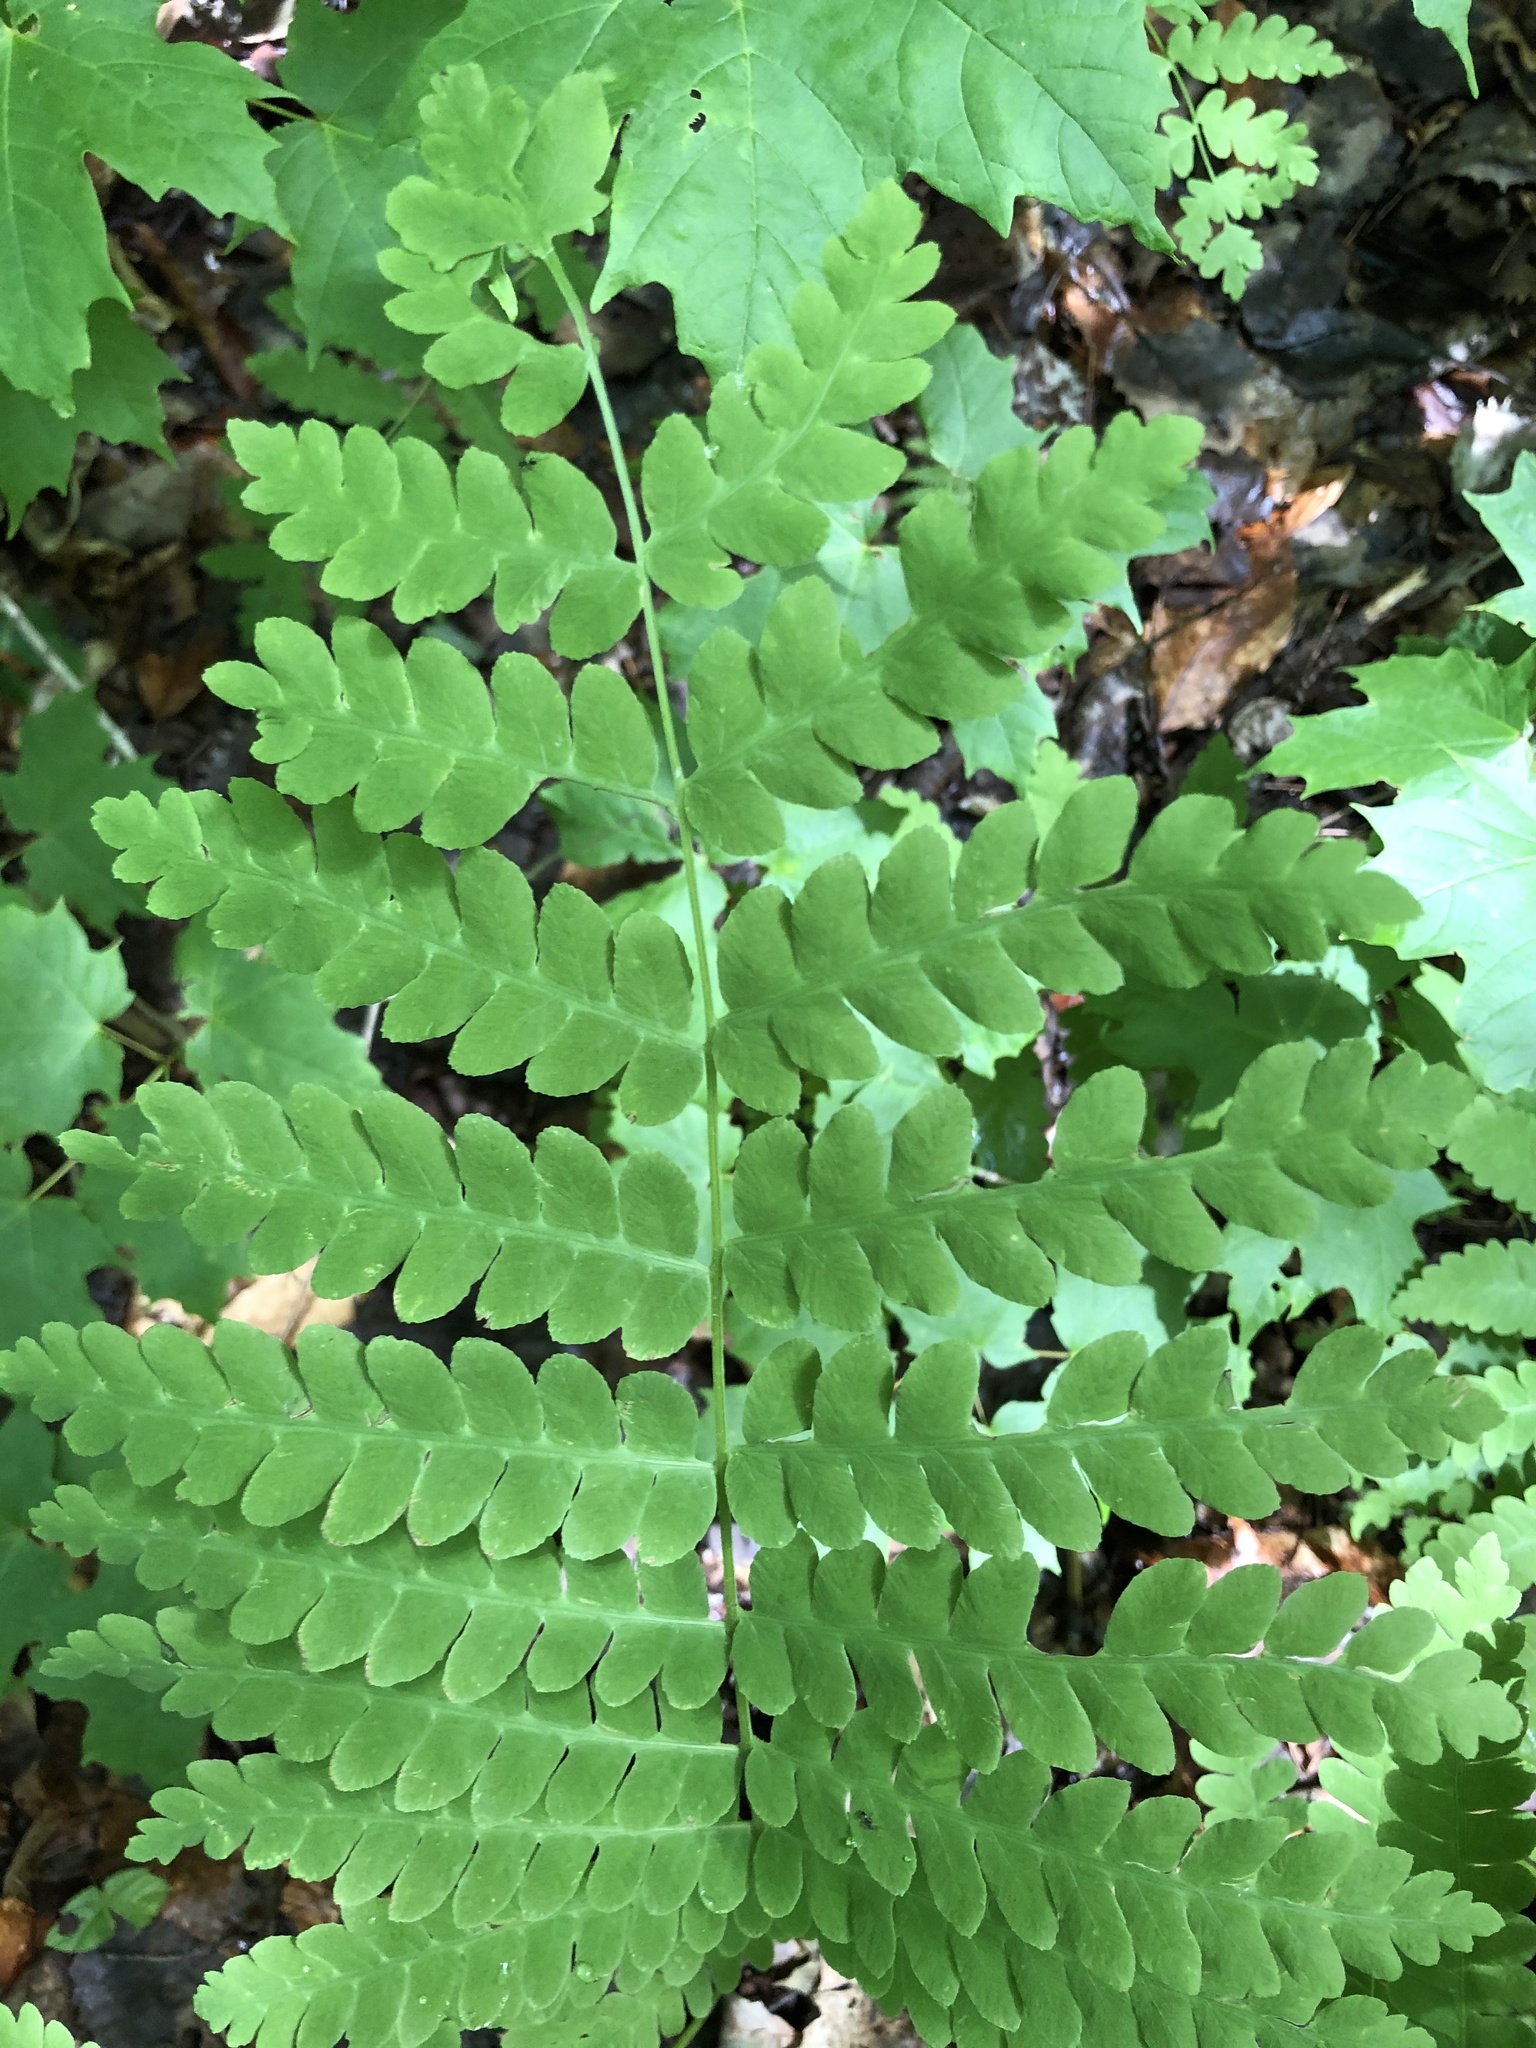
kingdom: Plantae
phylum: Tracheophyta
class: Polypodiopsida
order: Osmundales
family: Osmundaceae
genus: Claytosmunda
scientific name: Claytosmunda claytoniana
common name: Clayton's fern
